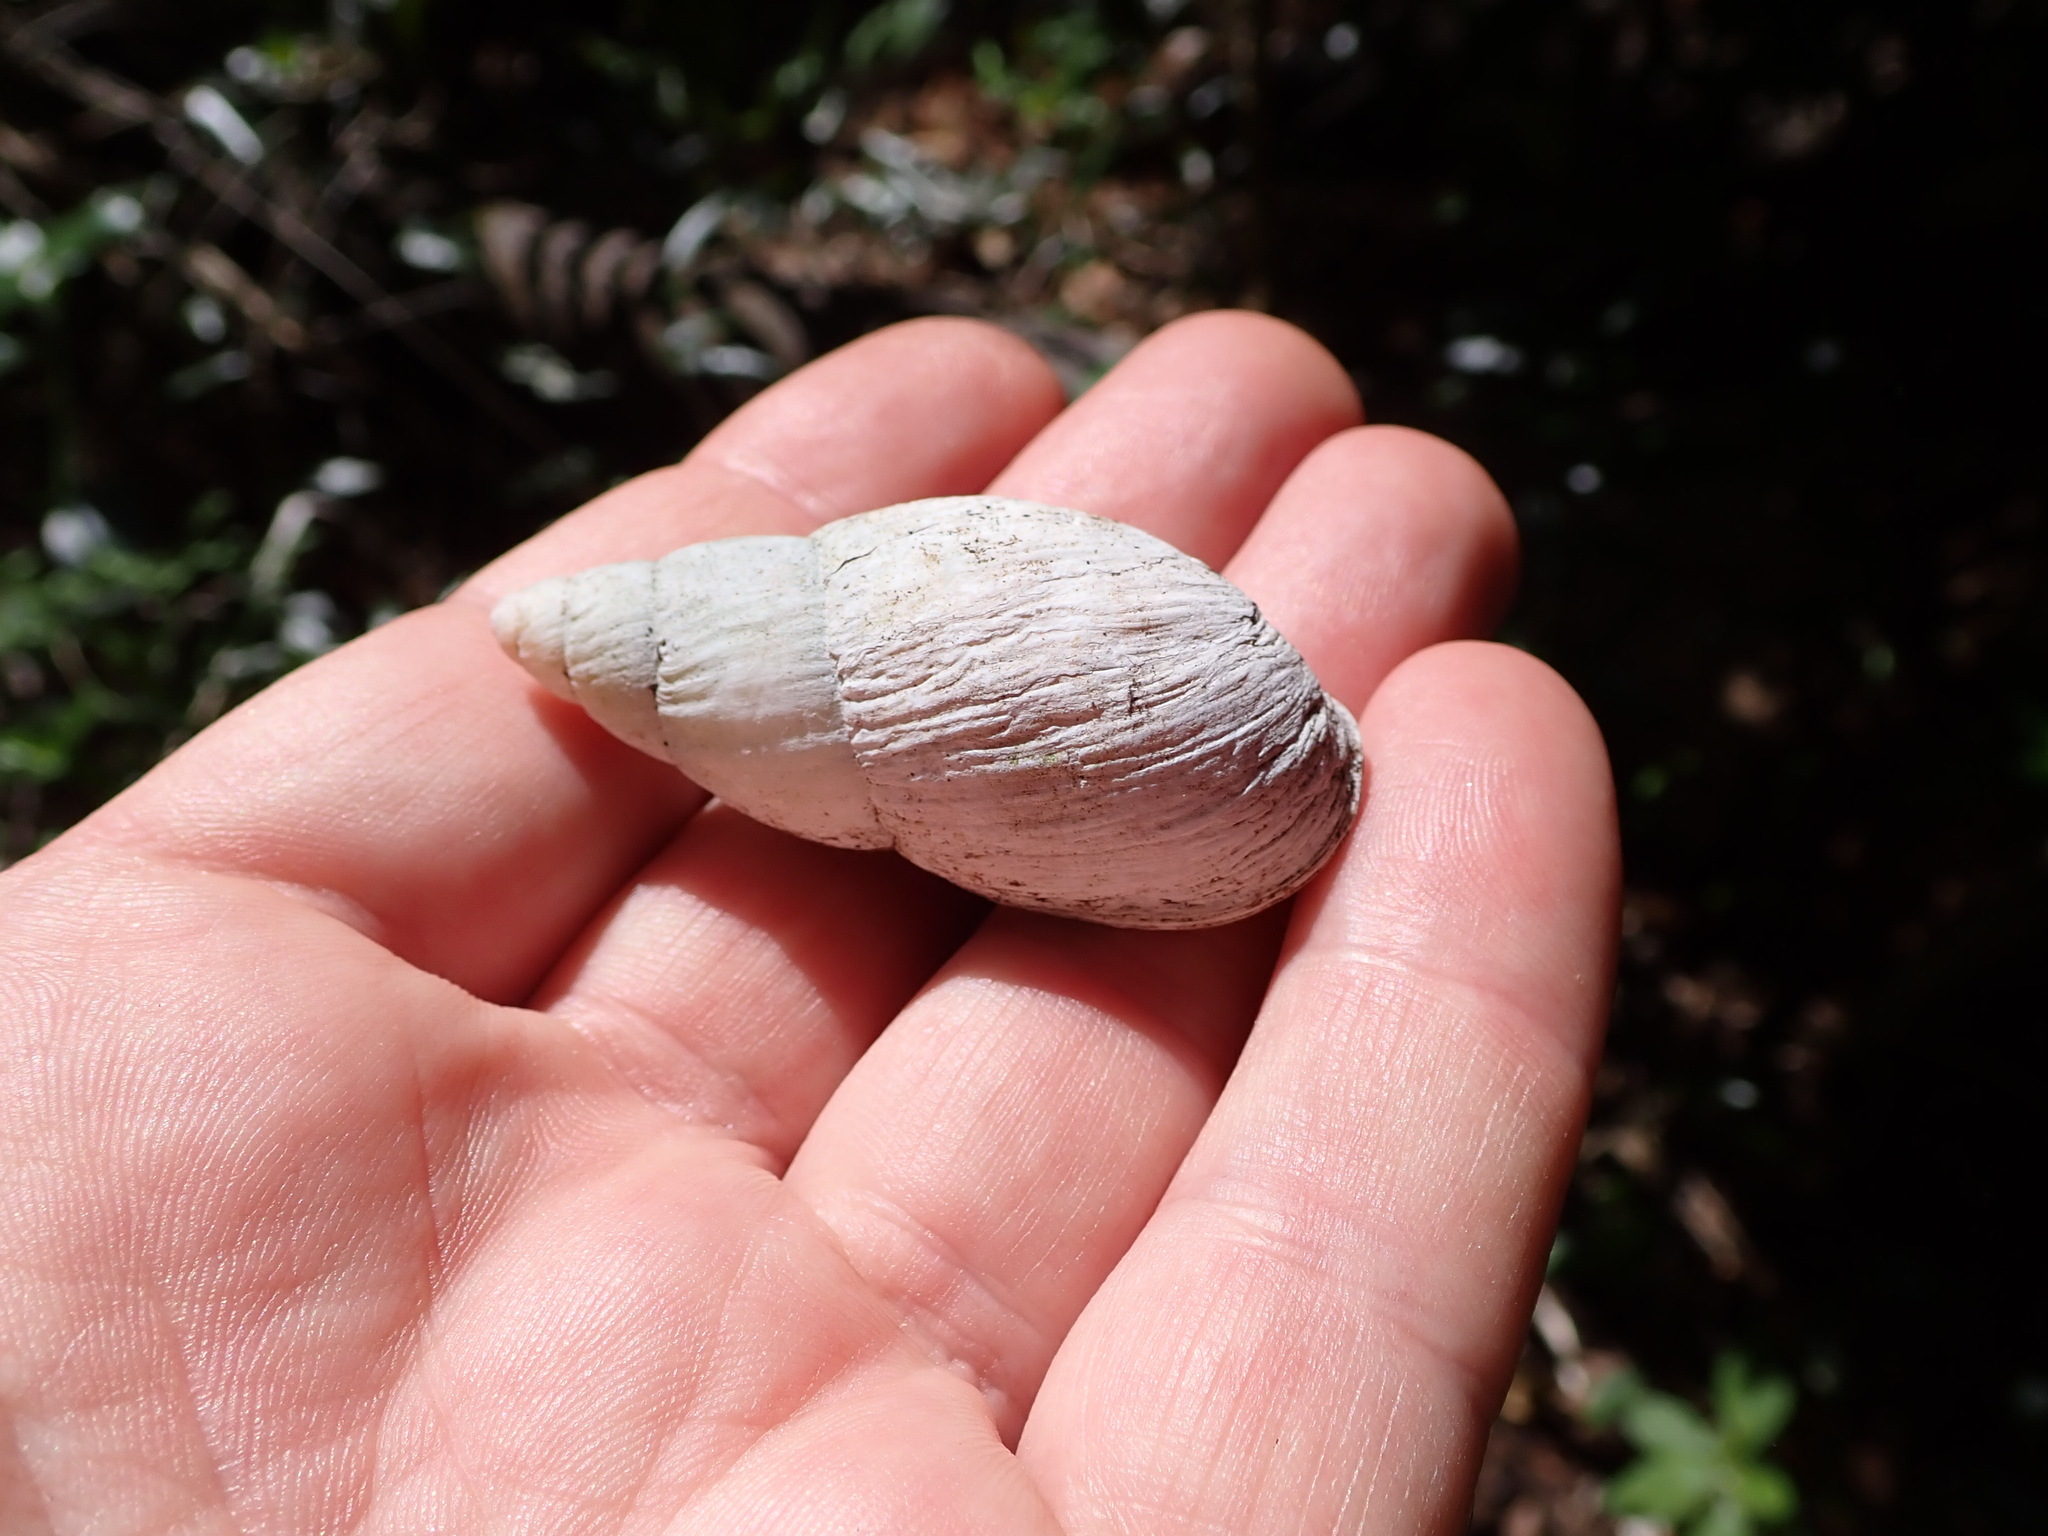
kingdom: Animalia
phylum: Mollusca
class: Gastropoda
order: Stylommatophora
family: Bothriembryontidae
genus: Maoristylus
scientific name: Maoristylus bivaricosus
